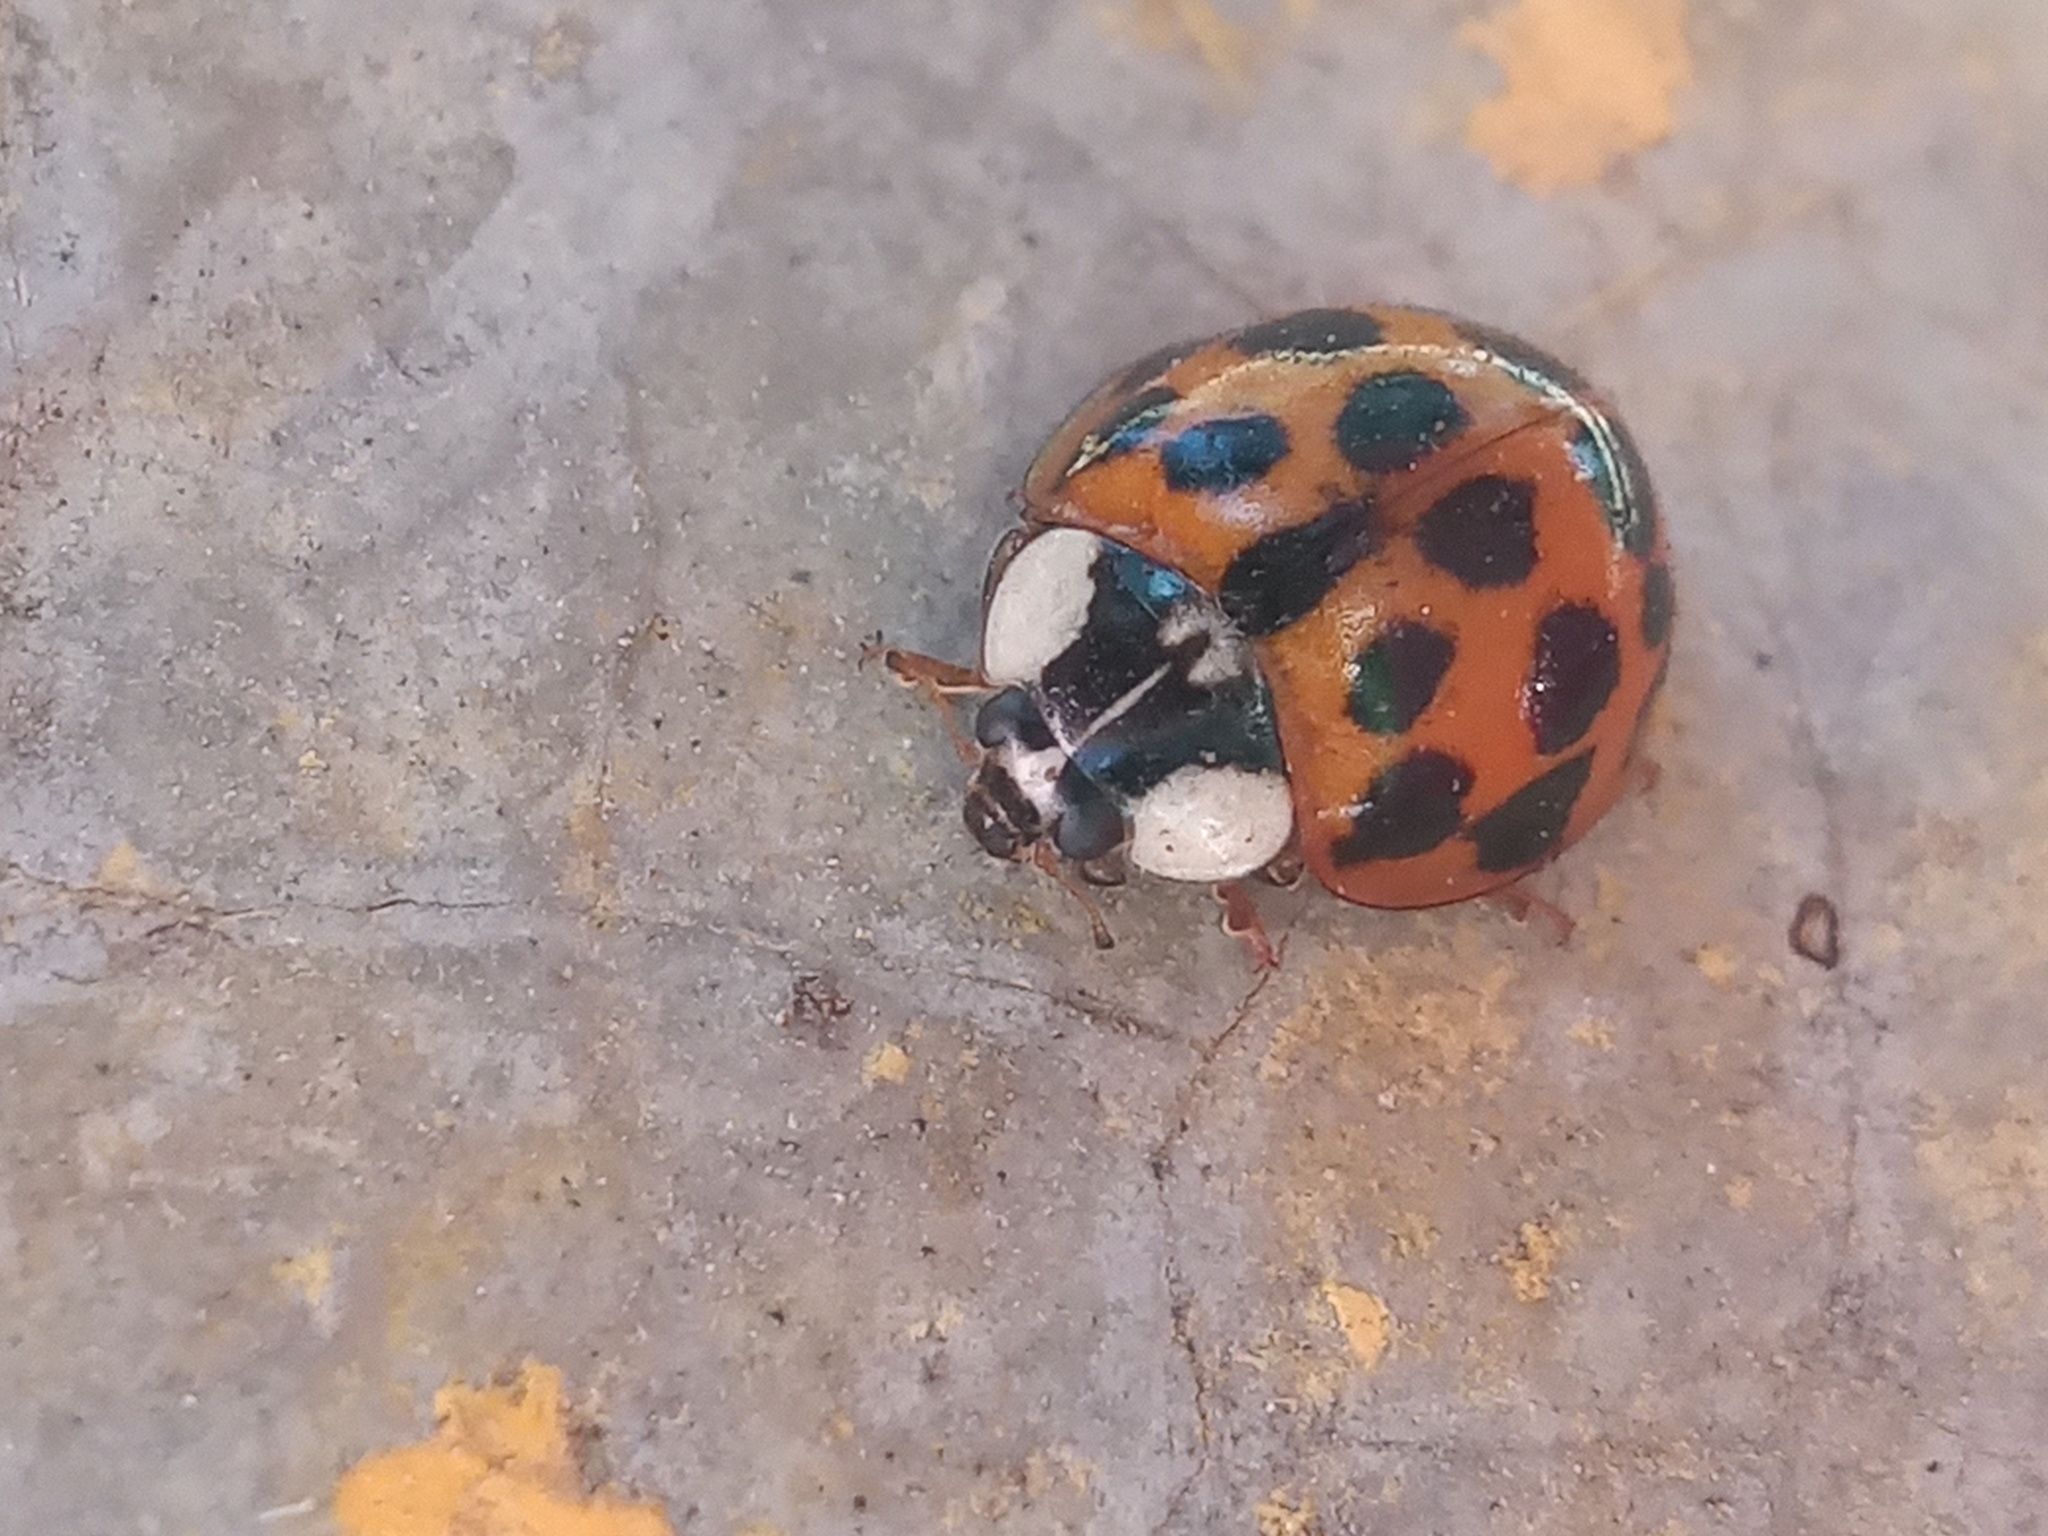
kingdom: Animalia
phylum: Arthropoda
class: Insecta
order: Coleoptera
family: Coccinellidae
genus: Harmonia
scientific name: Harmonia axyridis
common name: Harlequin ladybird
